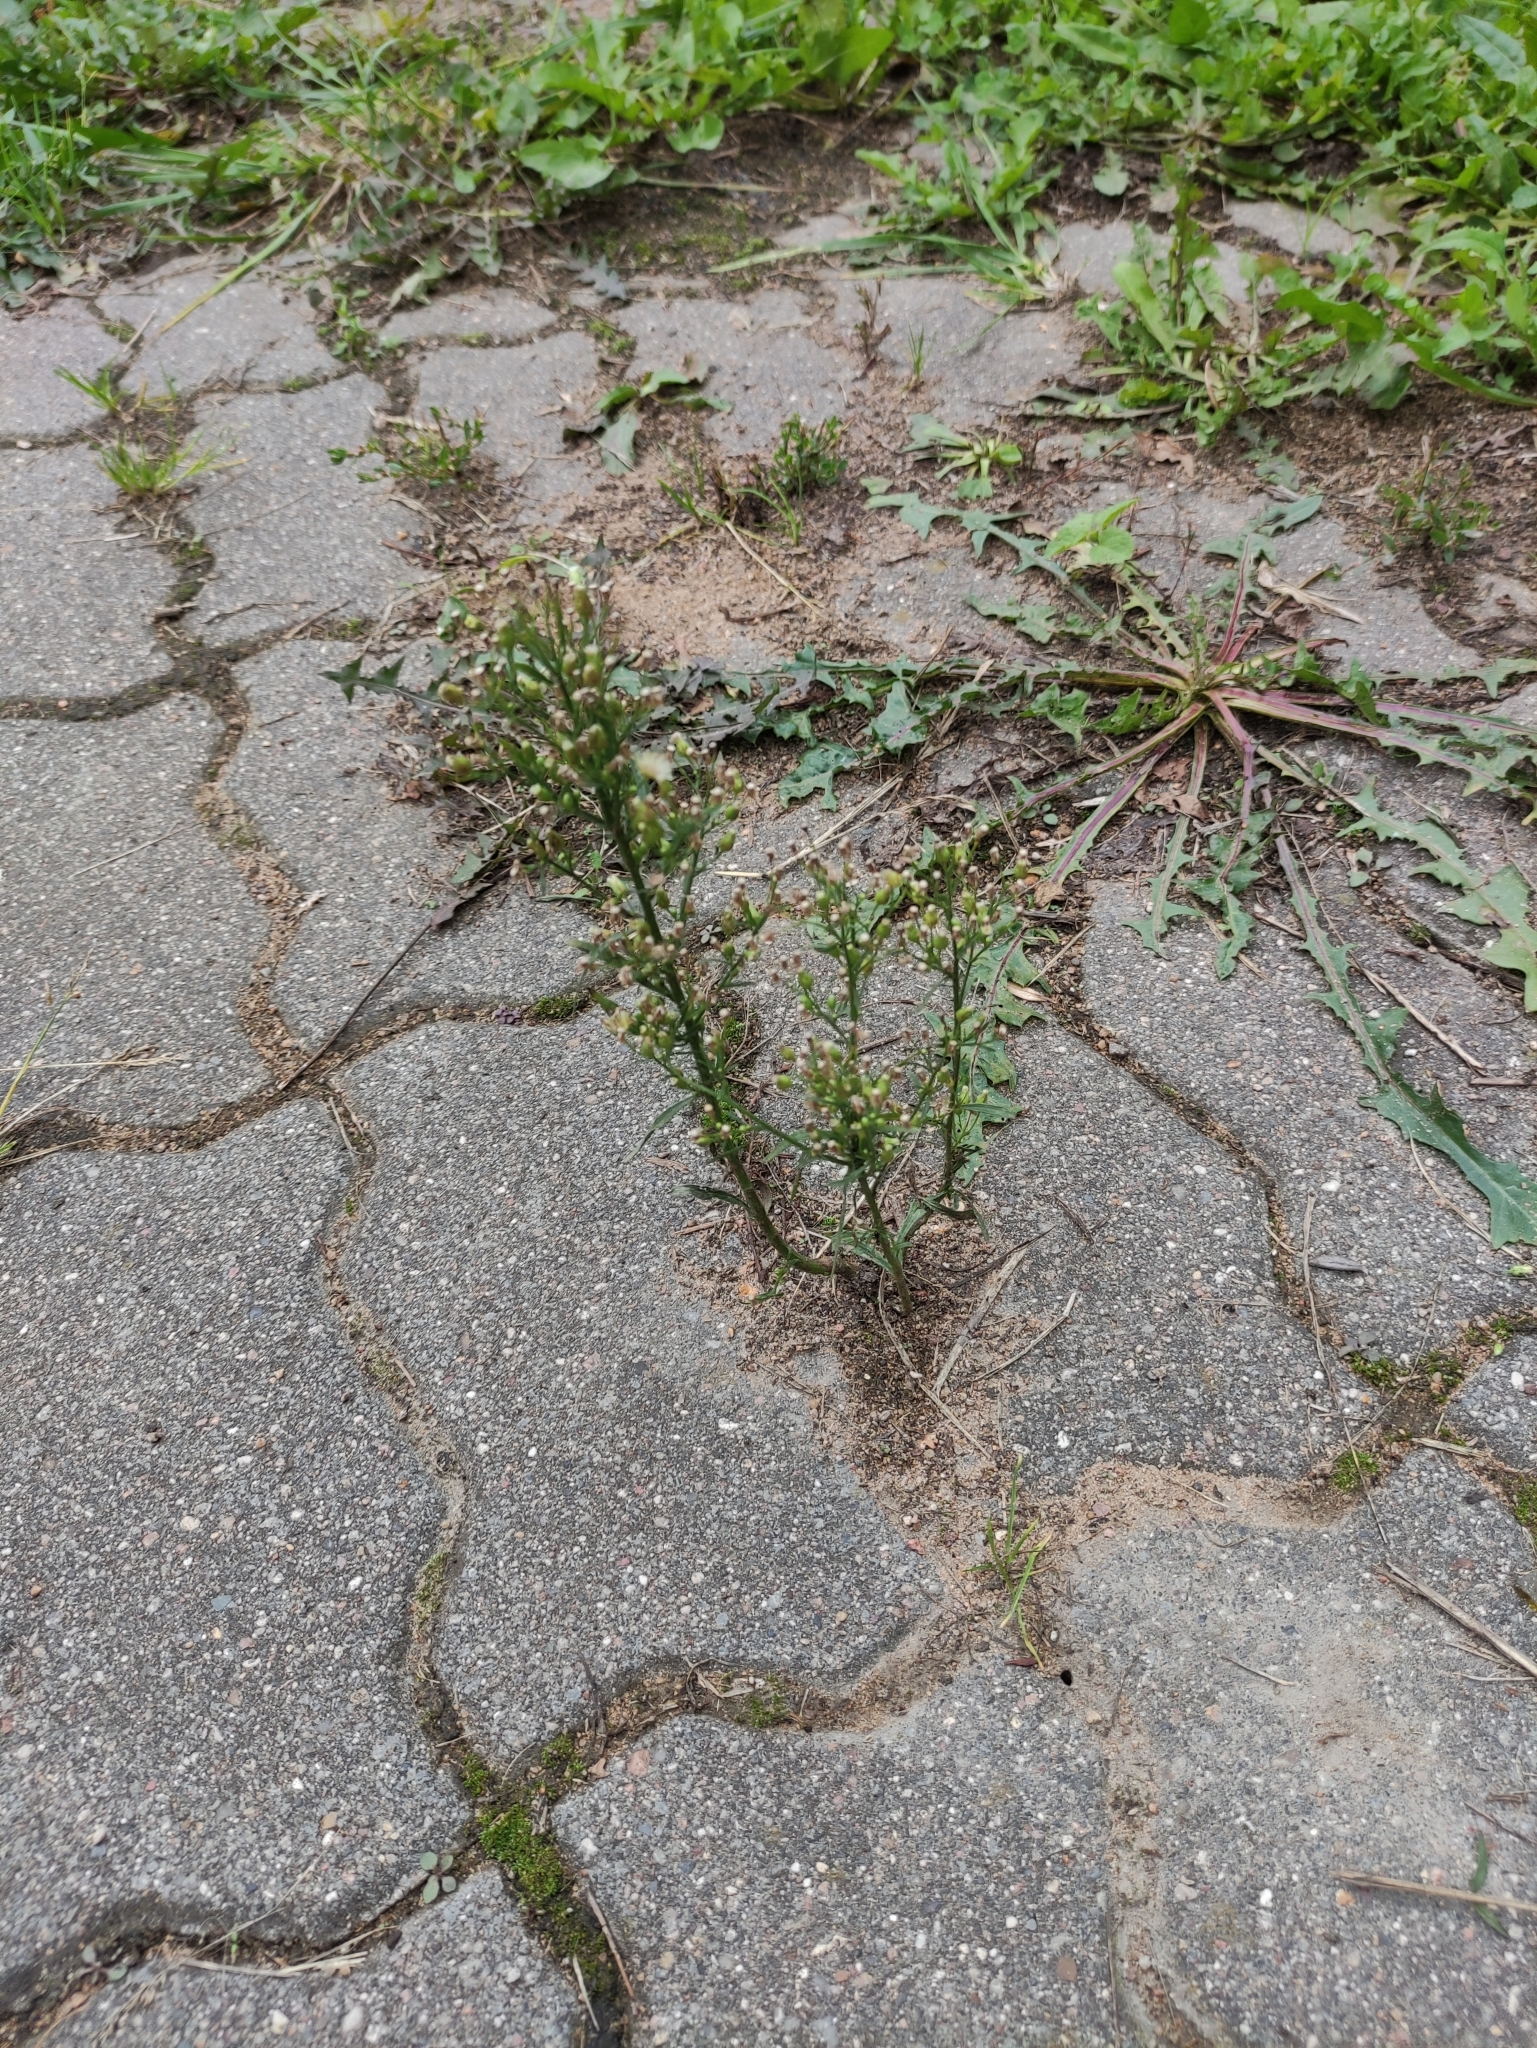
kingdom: Plantae
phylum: Tracheophyta
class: Magnoliopsida
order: Asterales
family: Asteraceae
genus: Erigeron
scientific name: Erigeron canadensis
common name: Canadian fleabane
